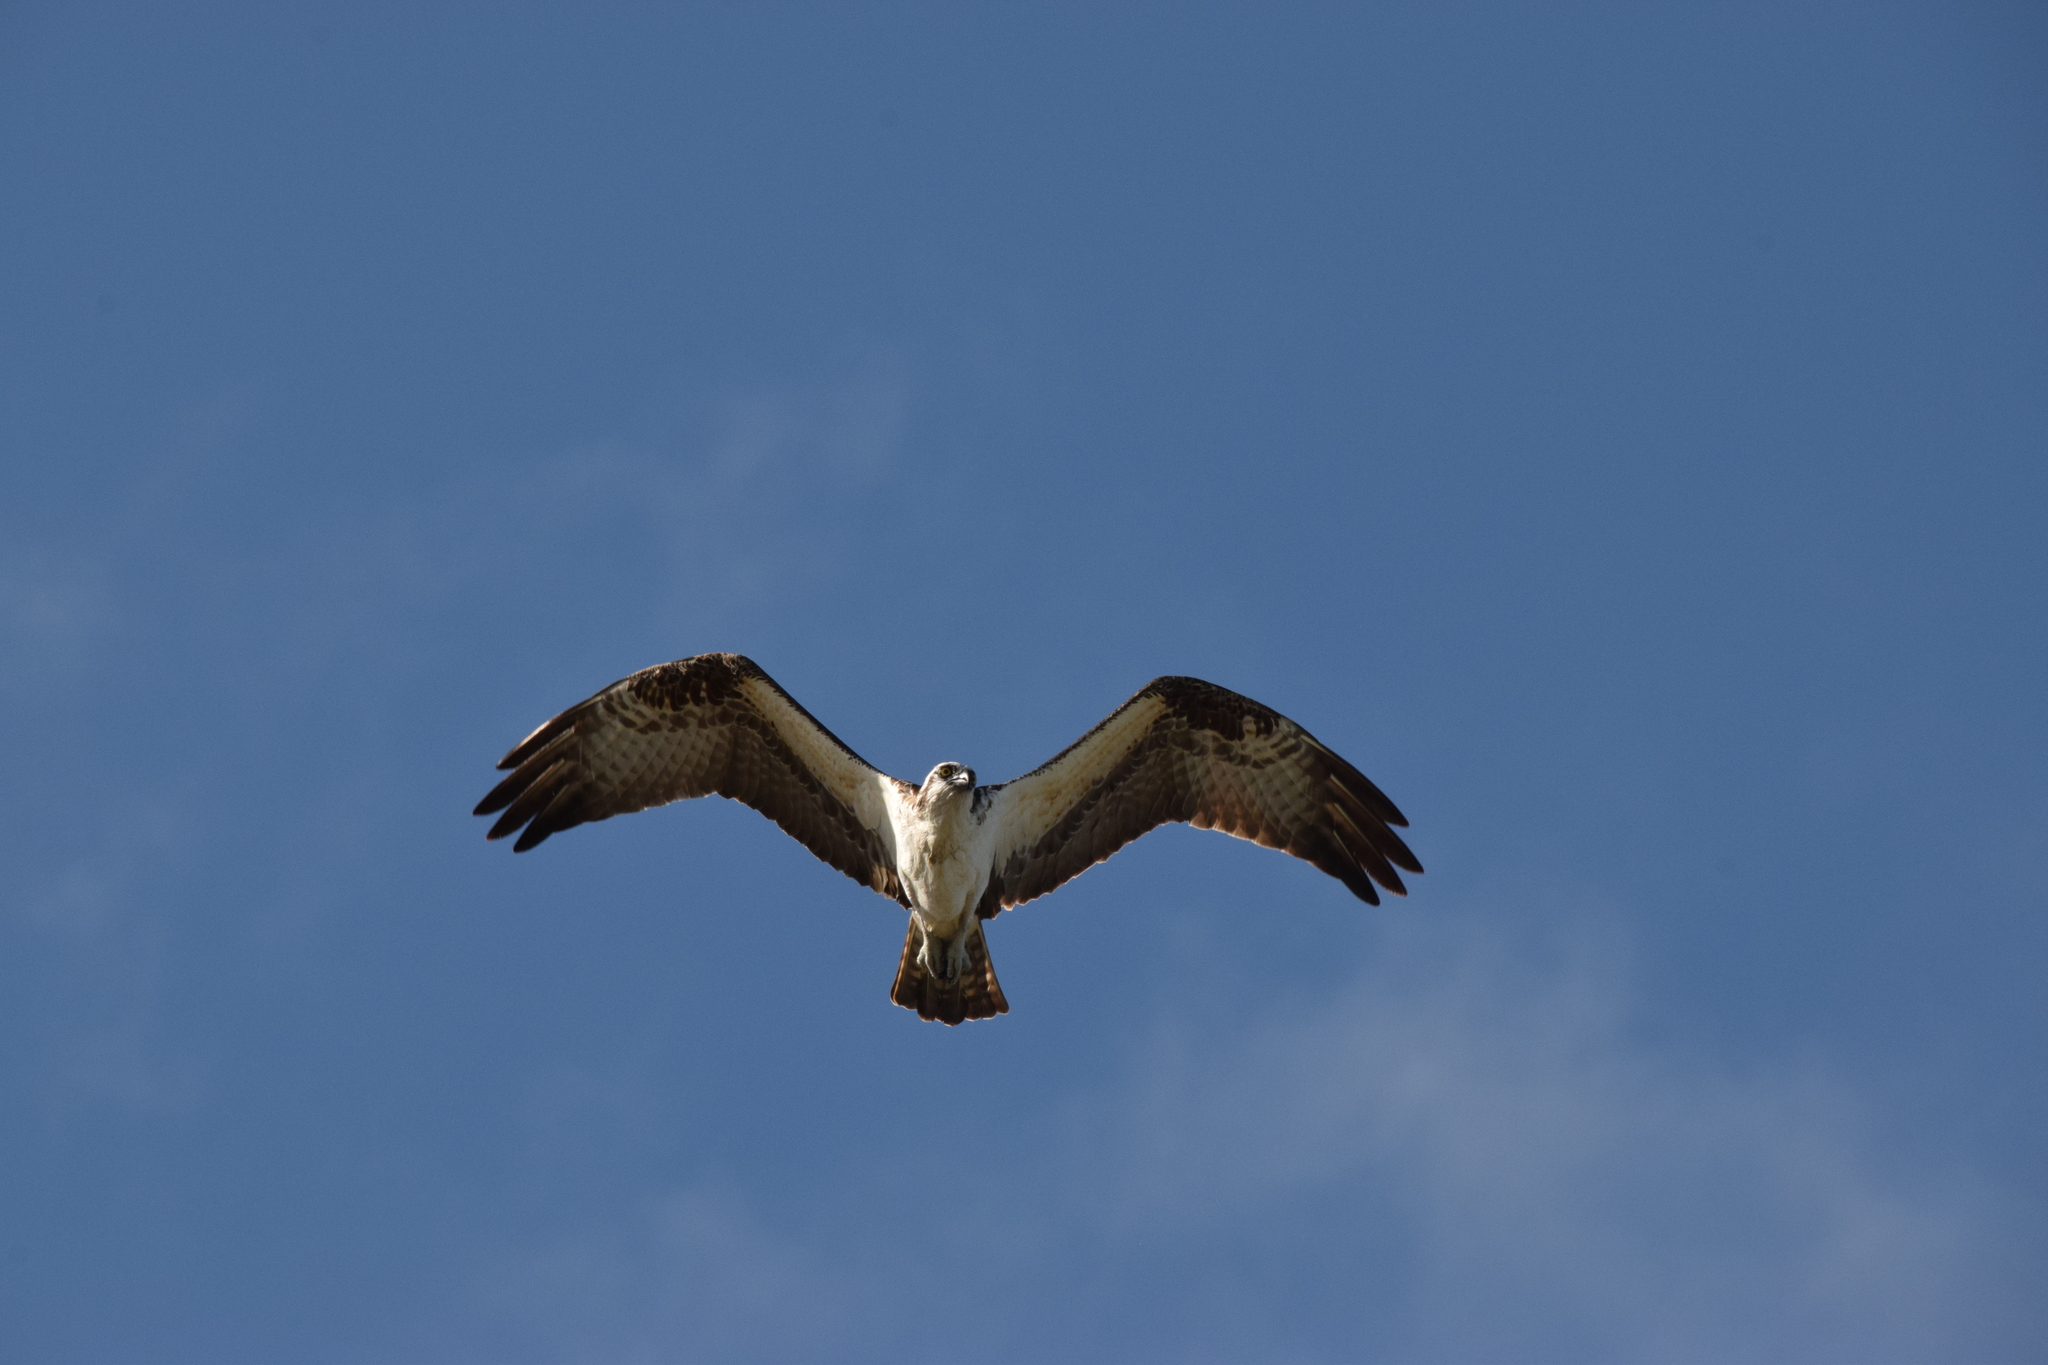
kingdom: Animalia
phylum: Chordata
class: Aves
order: Accipitriformes
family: Pandionidae
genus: Pandion
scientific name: Pandion haliaetus
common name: Osprey
